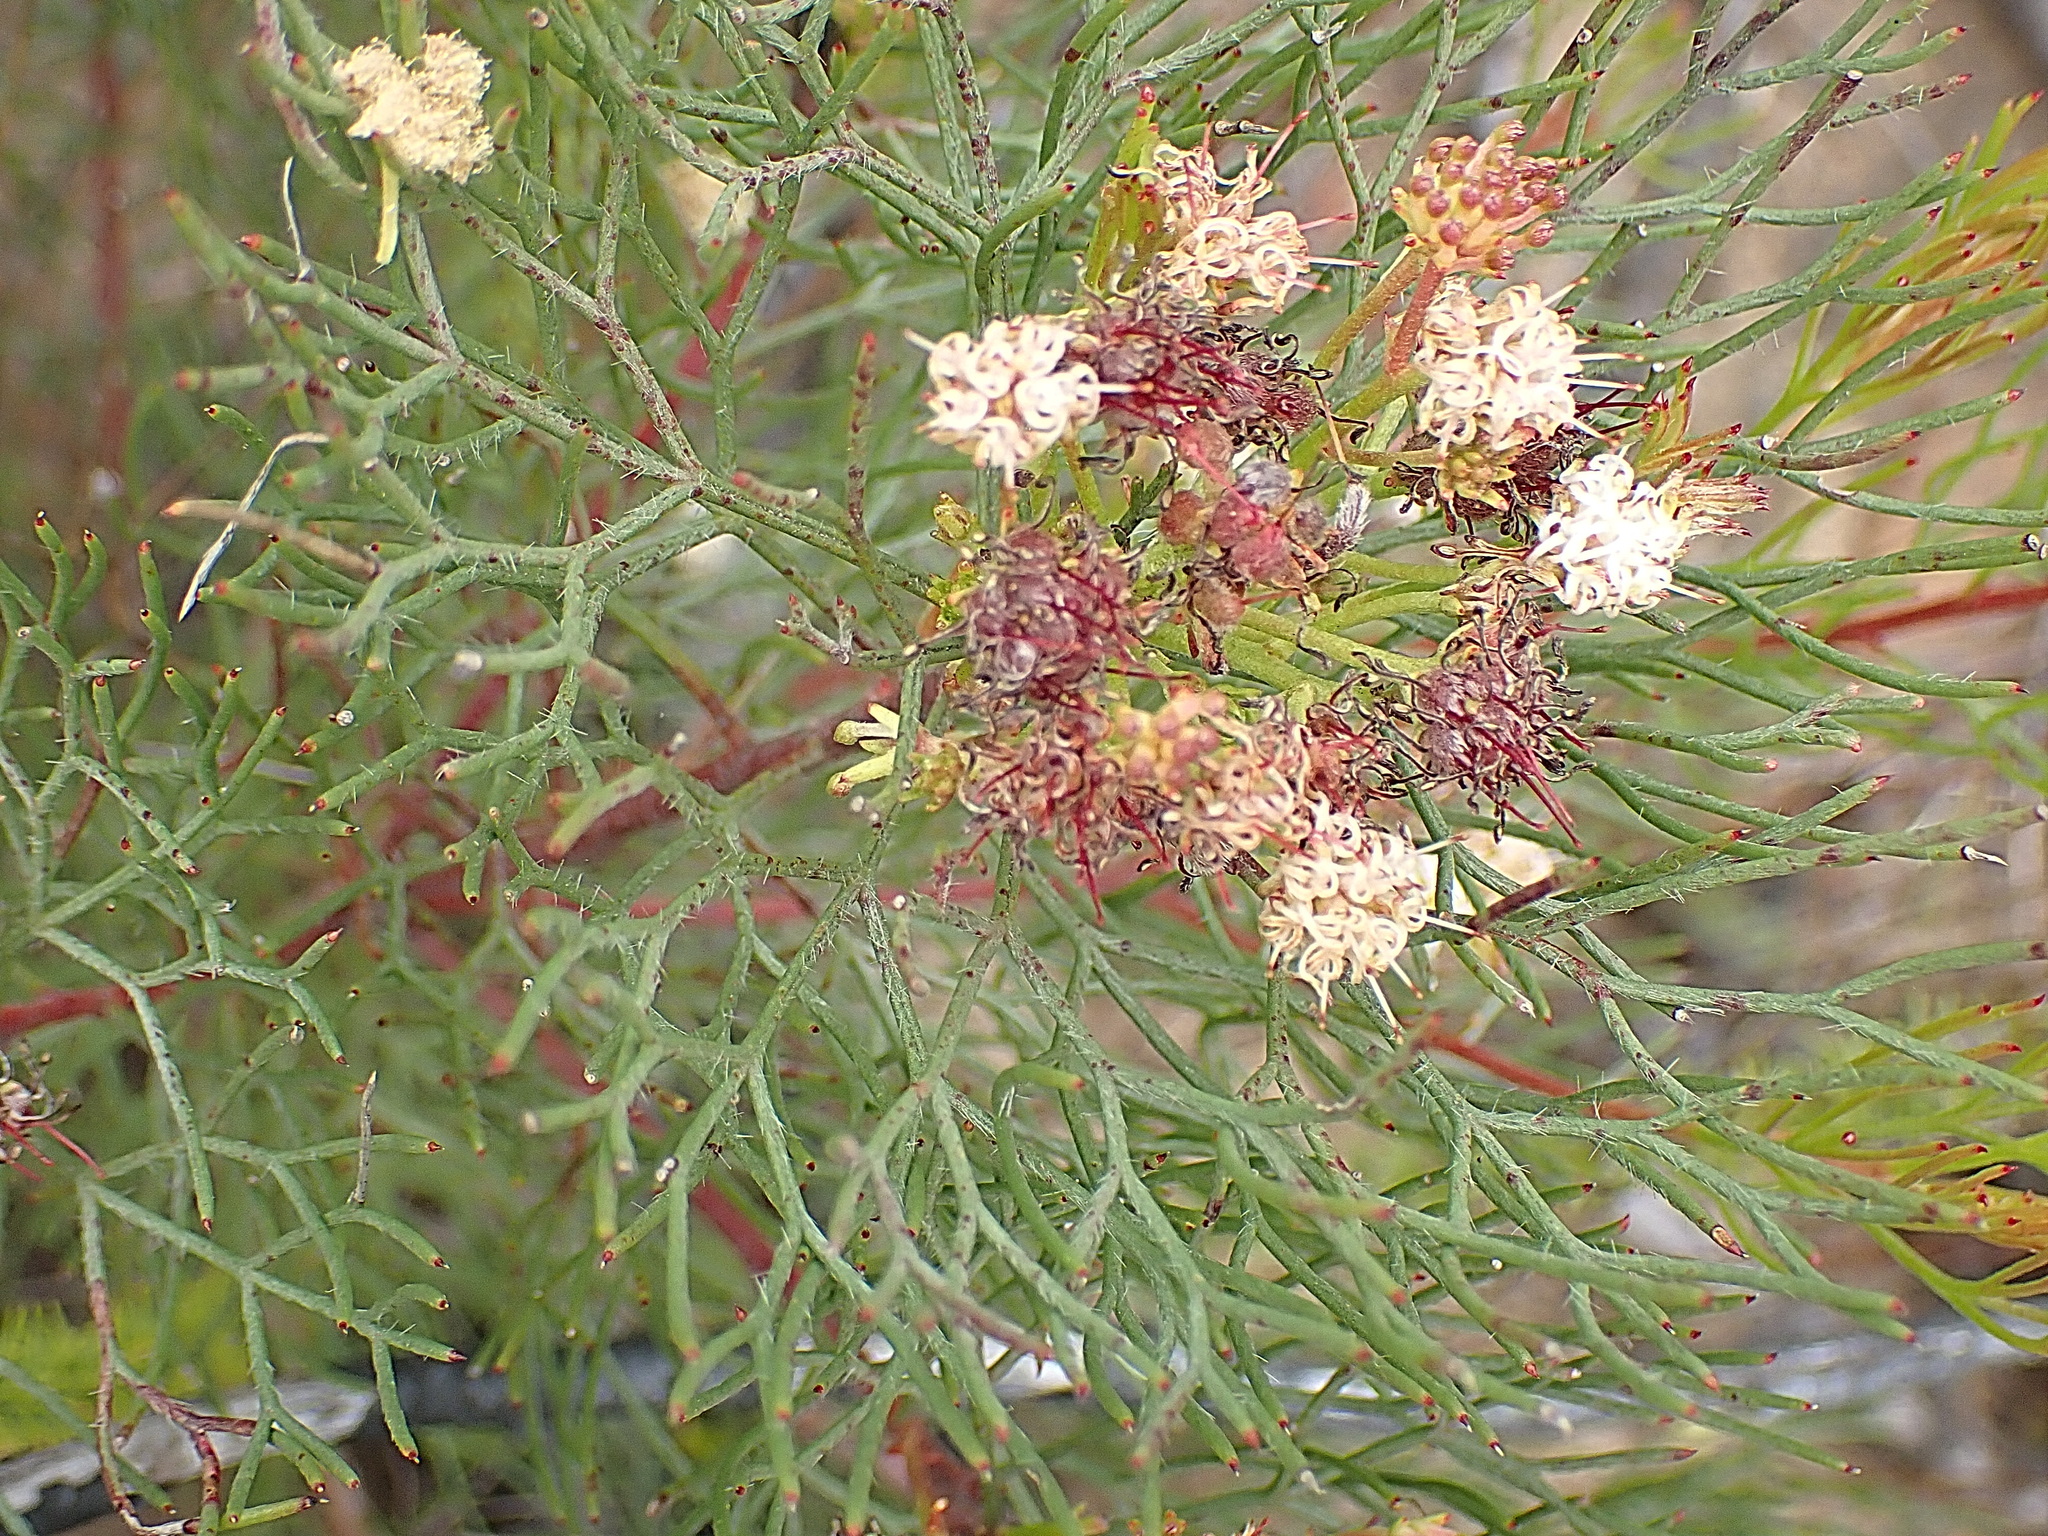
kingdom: Plantae
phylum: Tracheophyta
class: Magnoliopsida
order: Proteales
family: Proteaceae
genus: Serruria
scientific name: Serruria fasciflora
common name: Common pin spiderhead
